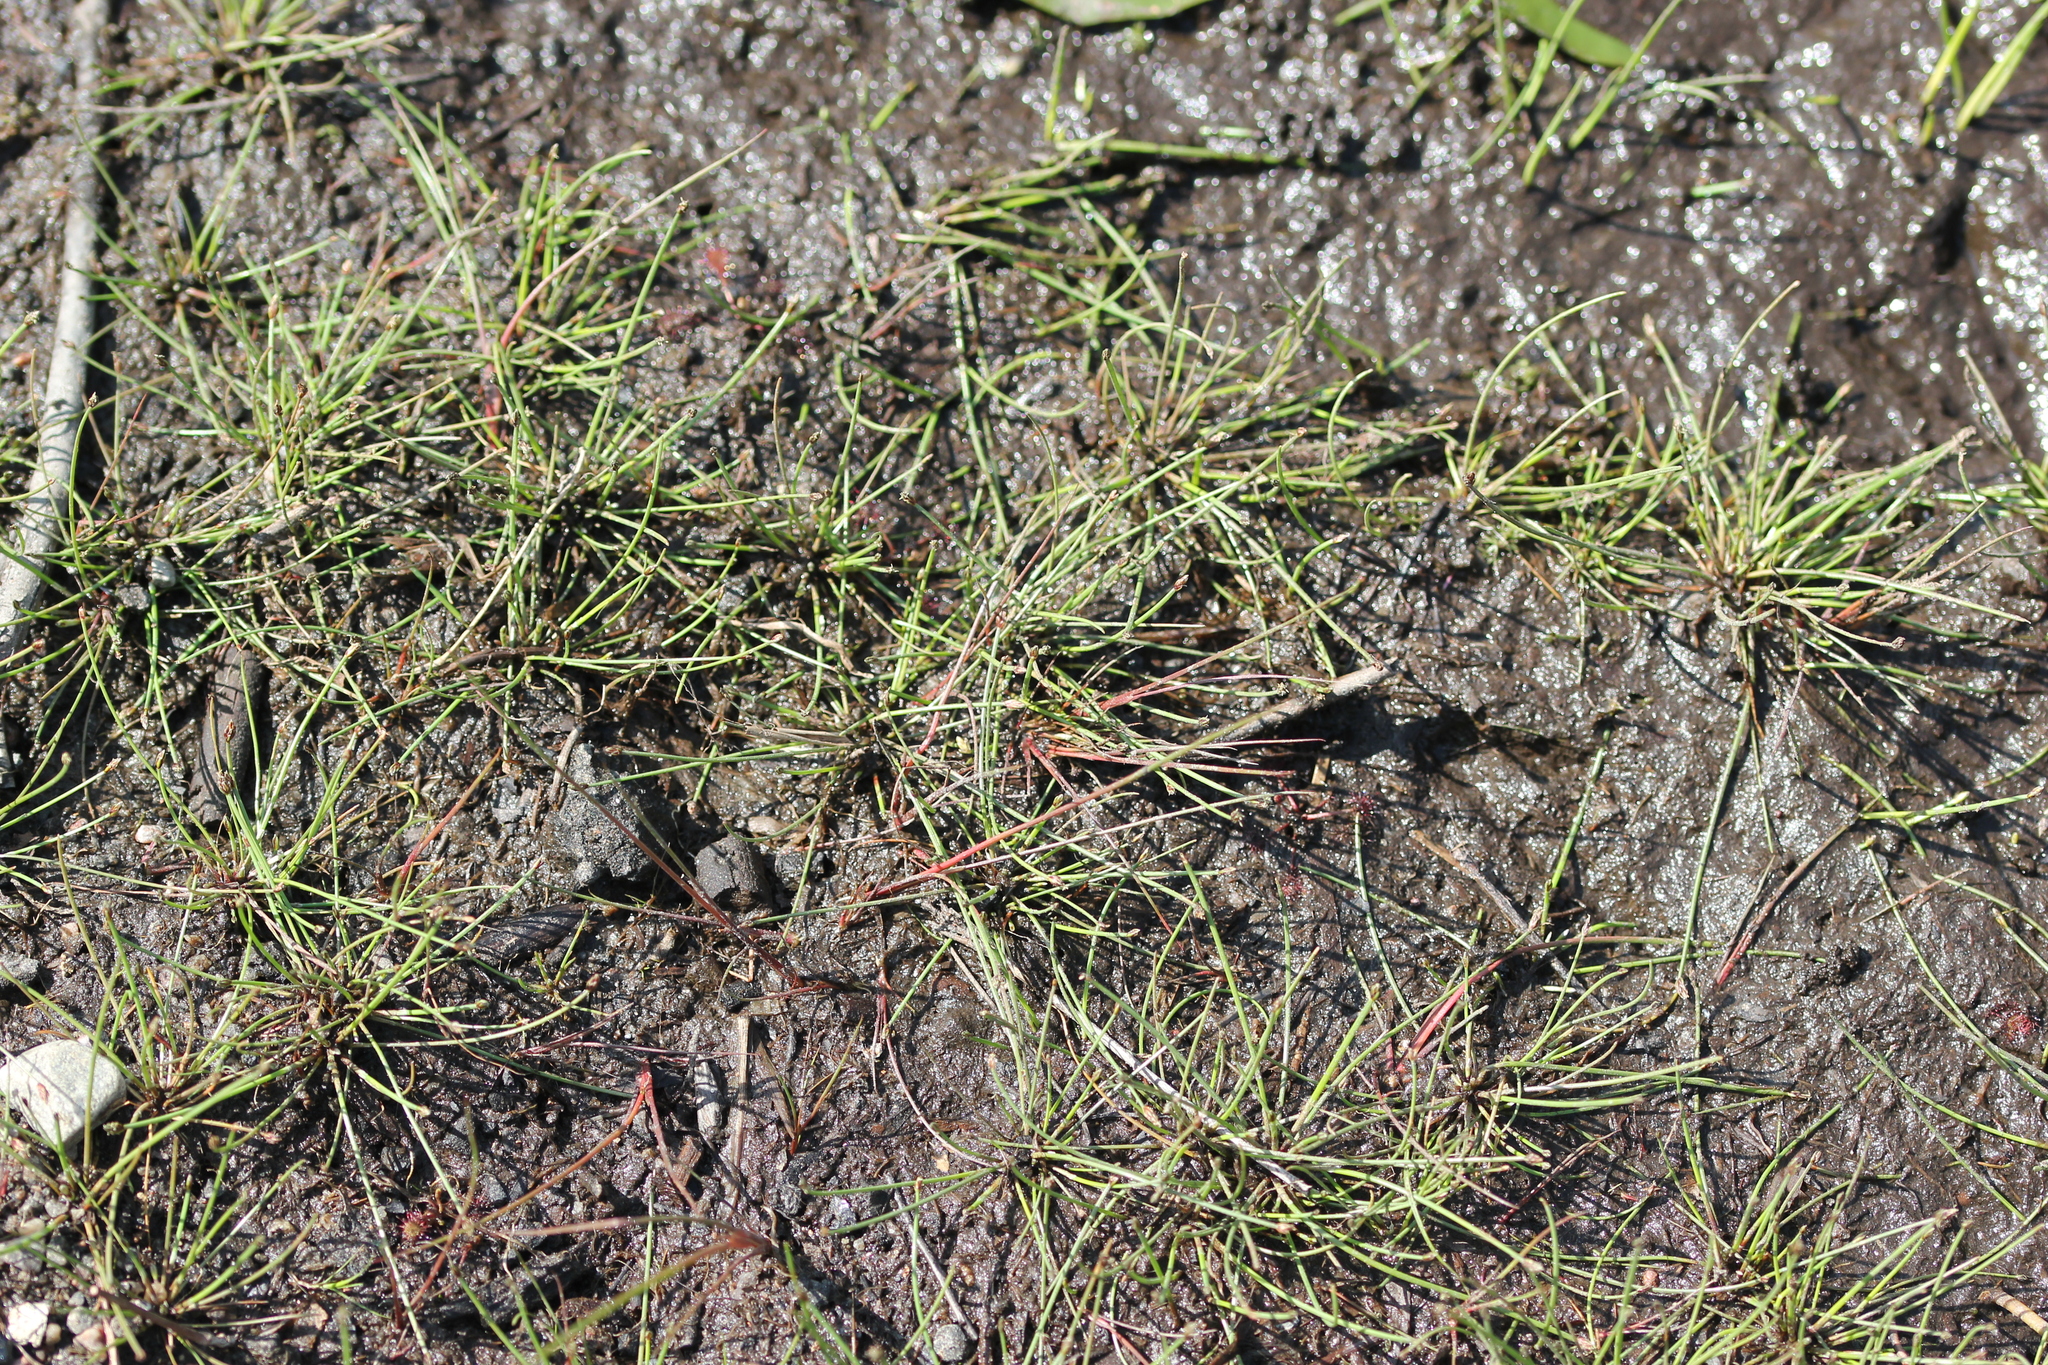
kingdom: Plantae
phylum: Tracheophyta
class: Liliopsida
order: Poales
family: Cyperaceae
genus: Eleocharis
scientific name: Eleocharis flavescens
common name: Yellow spikerush
